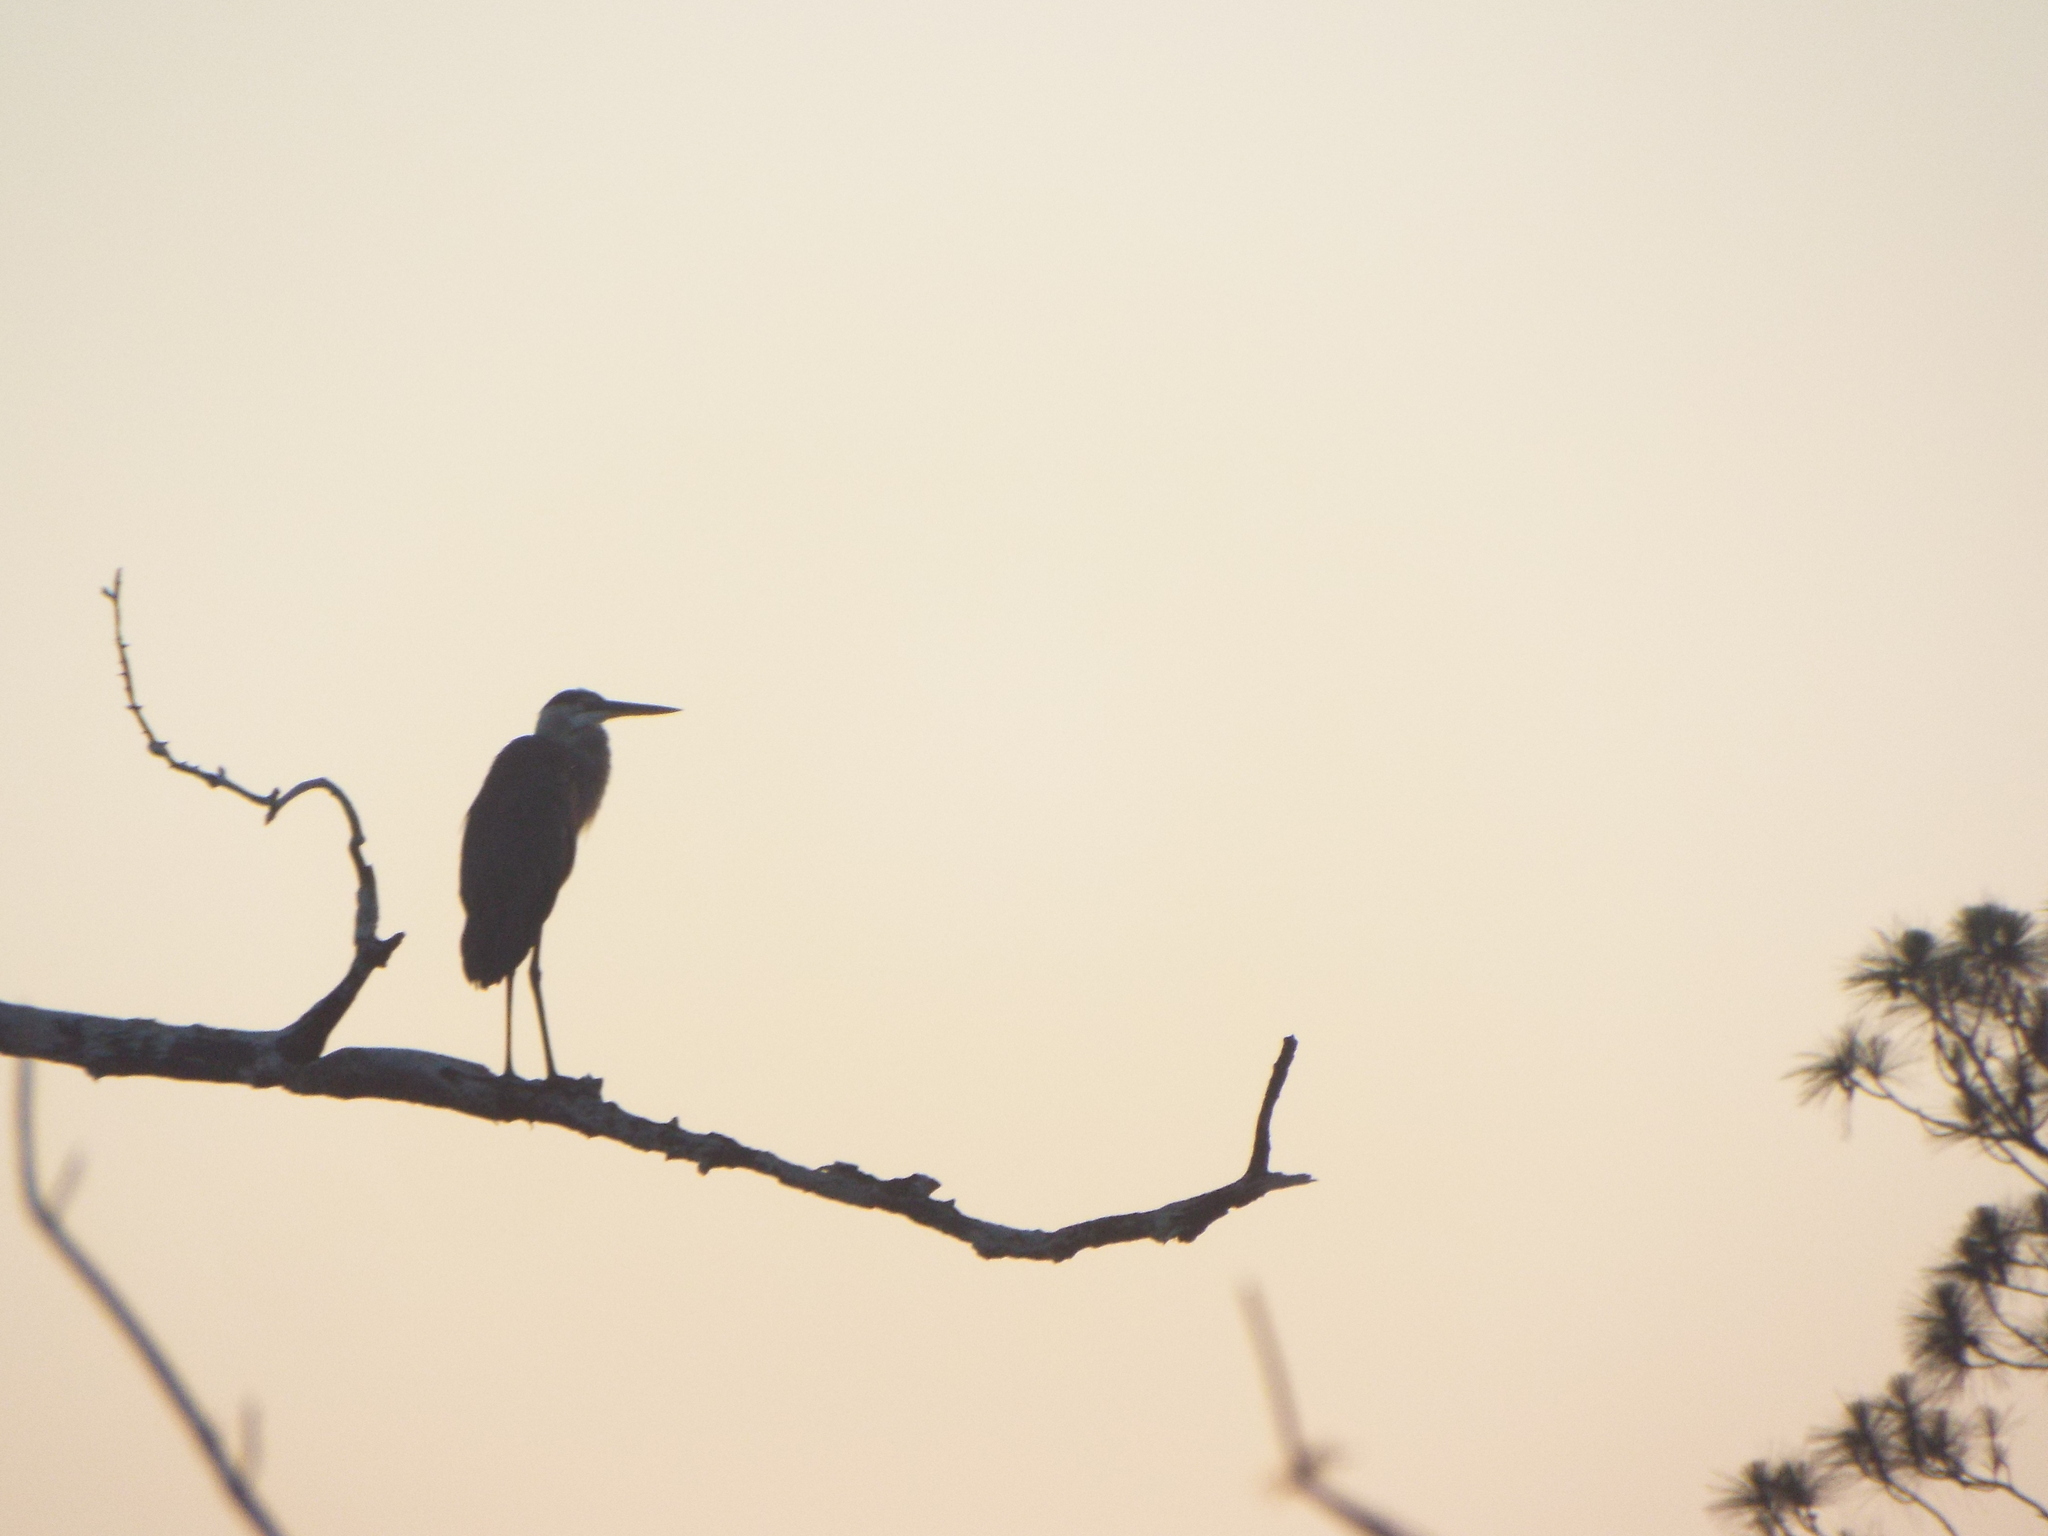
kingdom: Animalia
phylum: Chordata
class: Aves
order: Pelecaniformes
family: Ardeidae
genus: Ardea
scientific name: Ardea herodias
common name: Great blue heron
